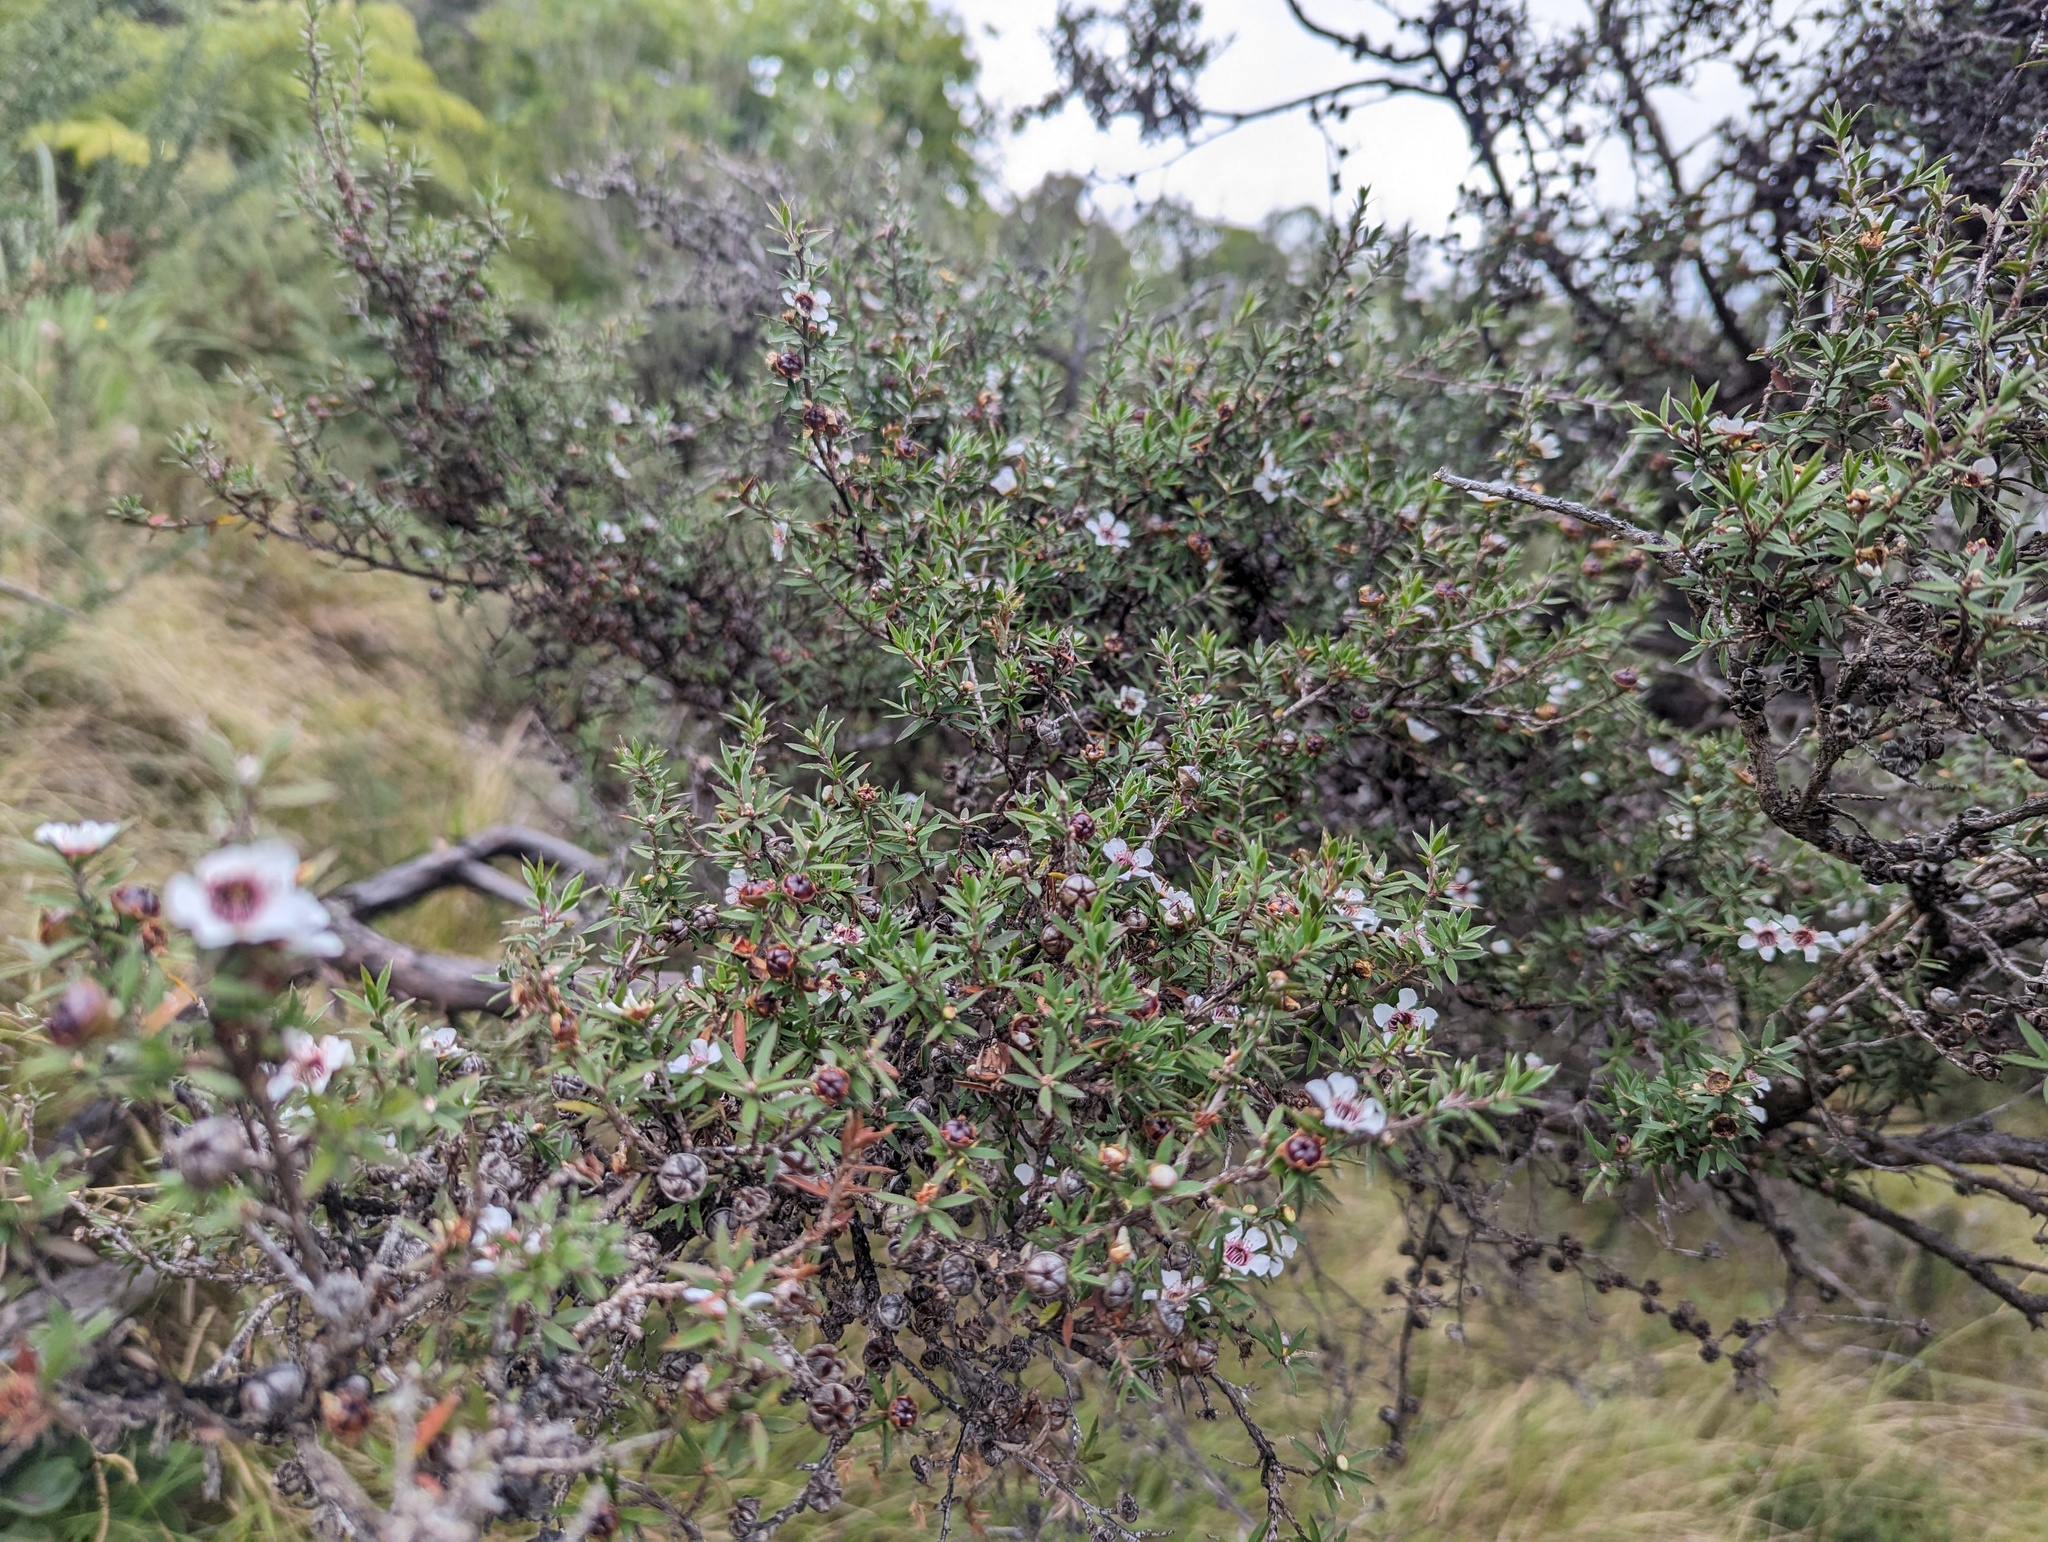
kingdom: Plantae
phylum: Tracheophyta
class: Magnoliopsida
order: Myrtales
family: Myrtaceae
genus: Leptospermum
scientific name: Leptospermum scoparium
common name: Broom tea-tree
